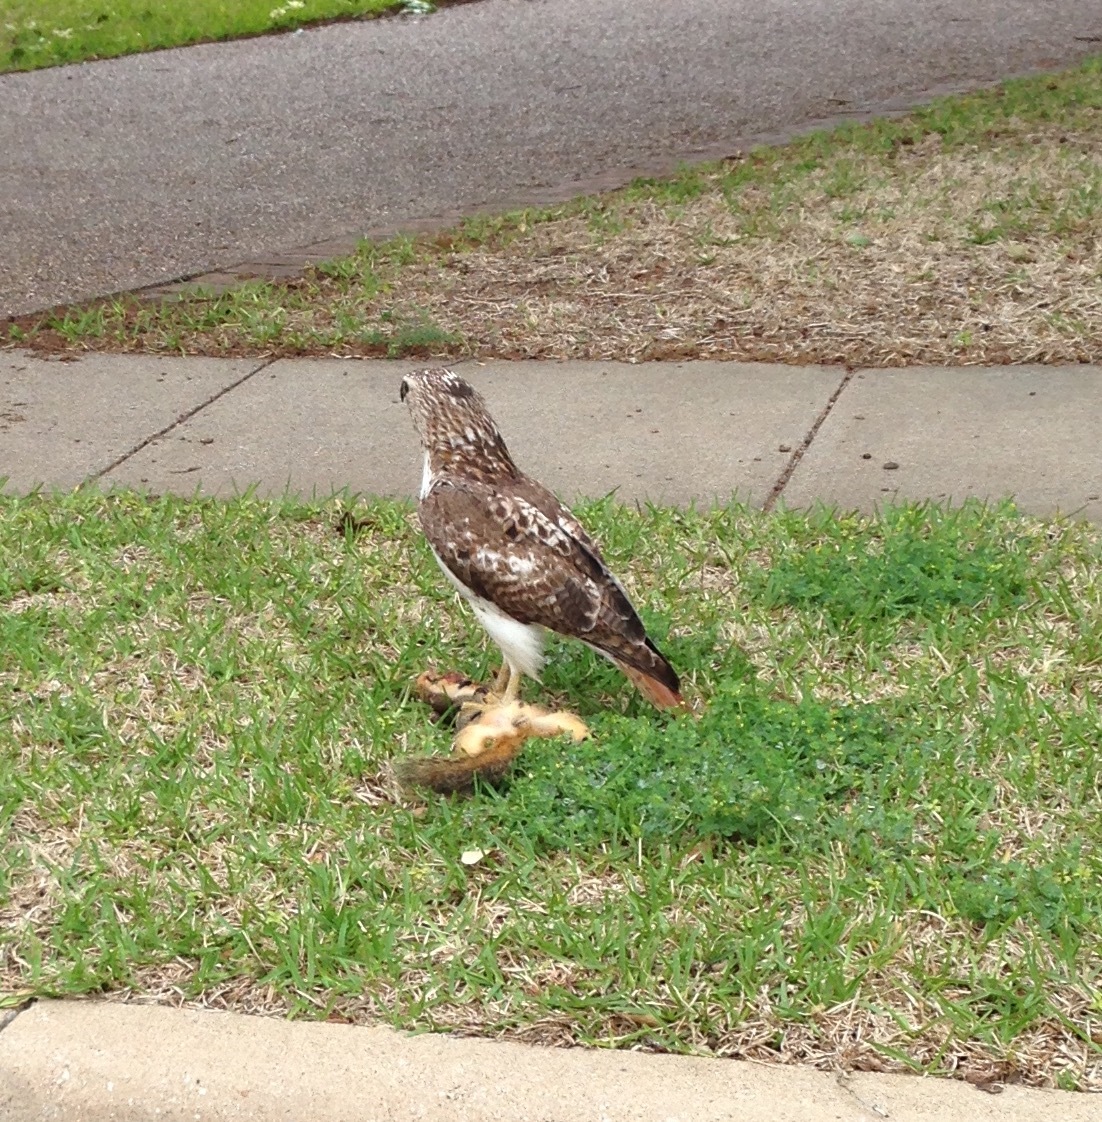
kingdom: Animalia
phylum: Chordata
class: Aves
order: Accipitriformes
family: Accipitridae
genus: Buteo
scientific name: Buteo jamaicensis
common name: Red-tailed hawk
